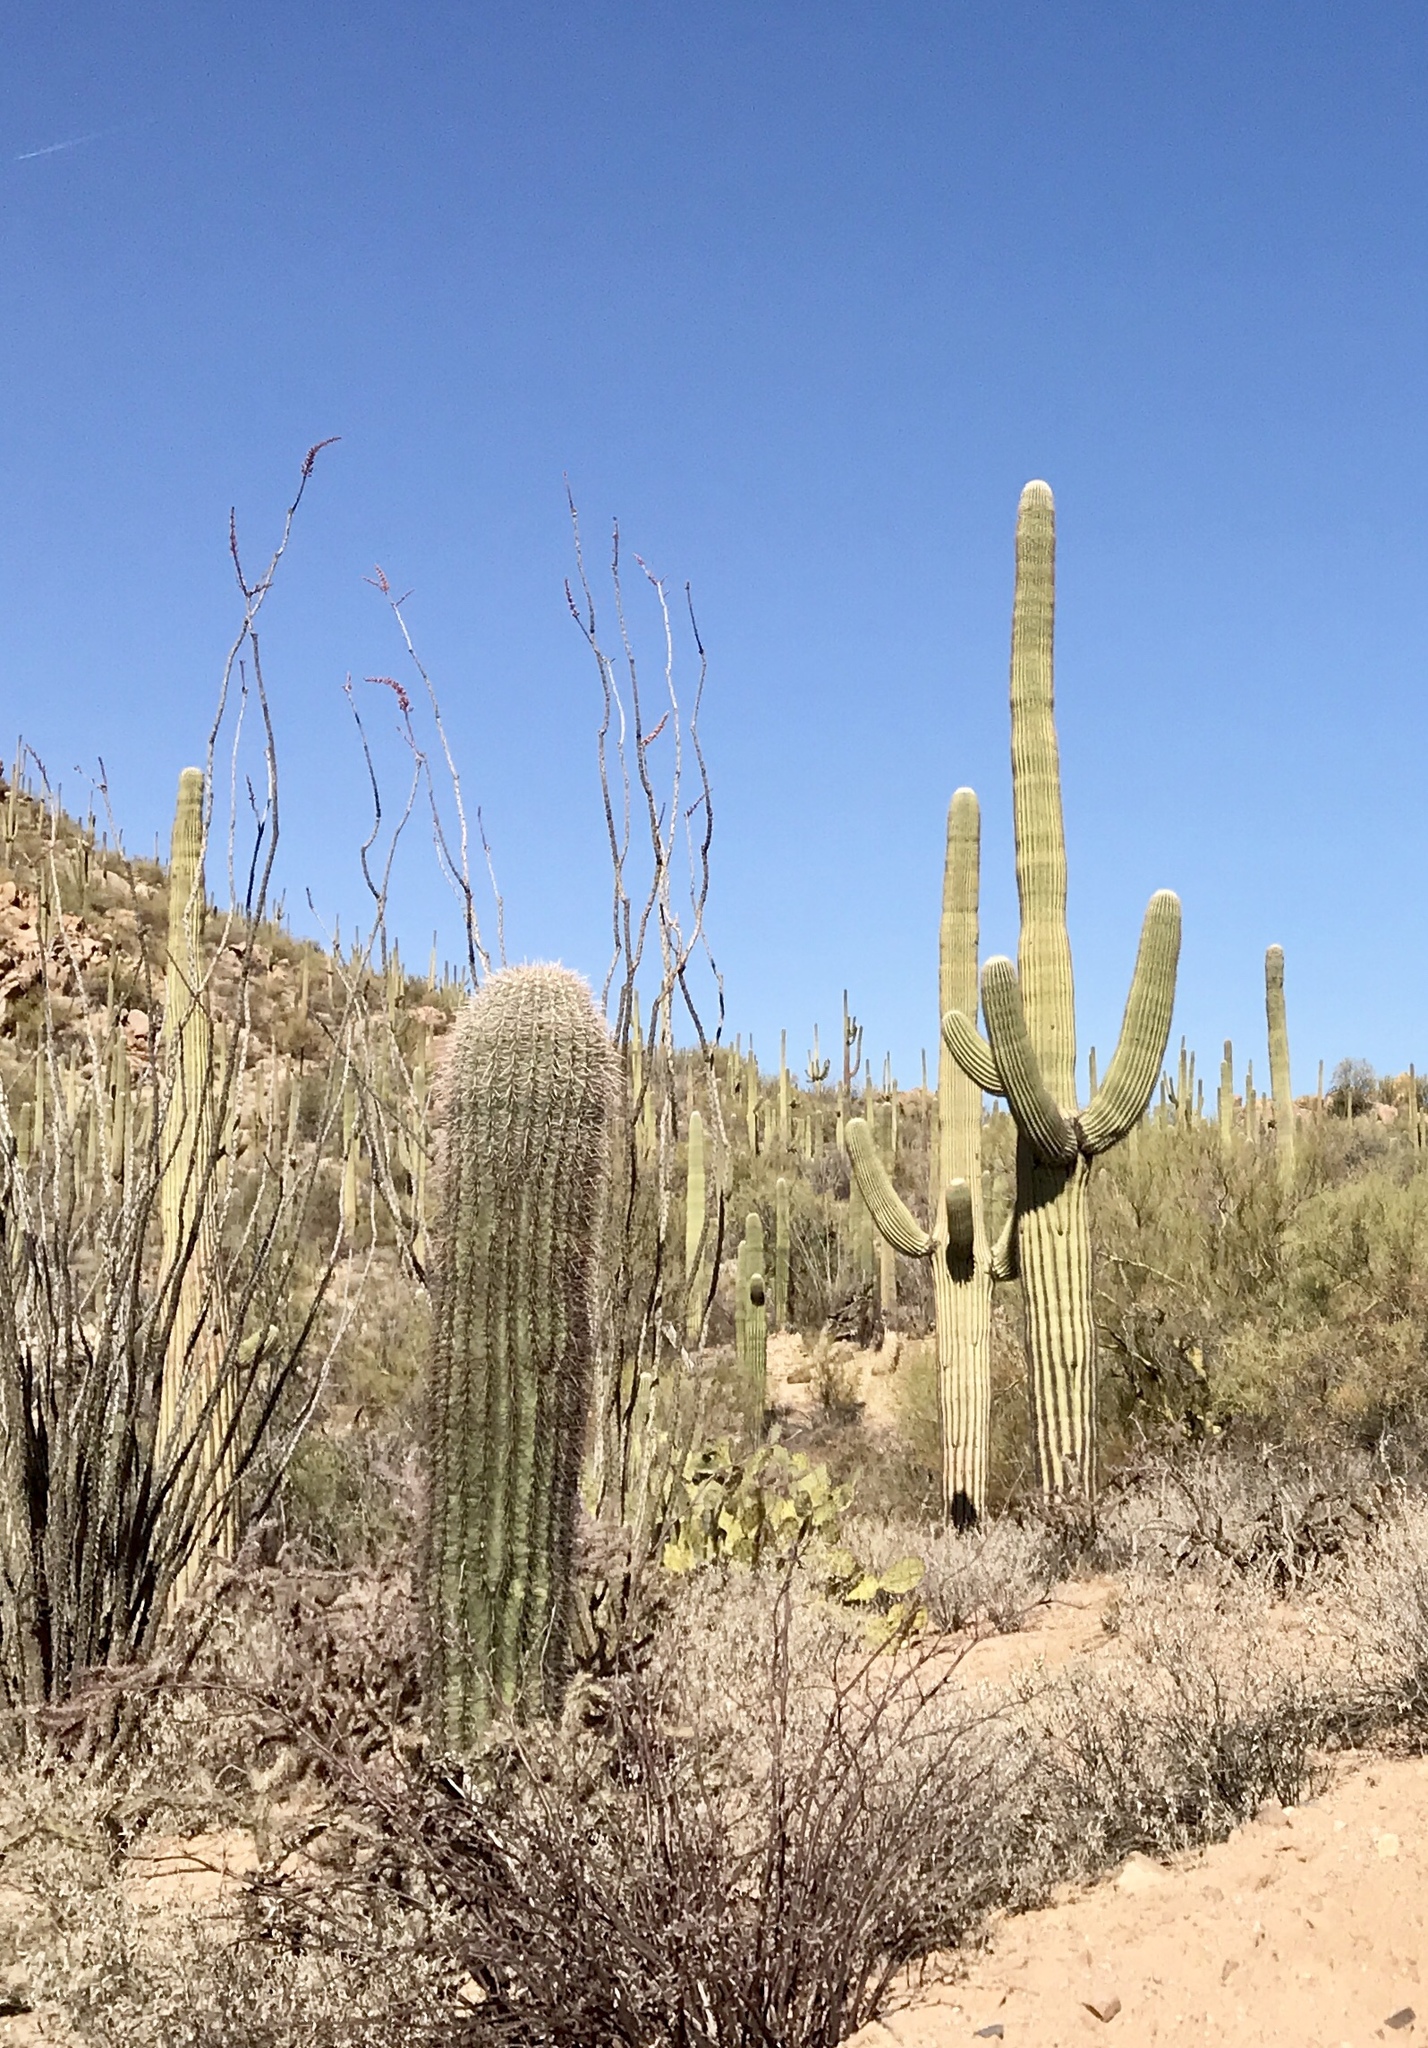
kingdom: Plantae
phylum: Tracheophyta
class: Magnoliopsida
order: Caryophyllales
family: Cactaceae
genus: Carnegiea
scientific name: Carnegiea gigantea
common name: Saguaro
